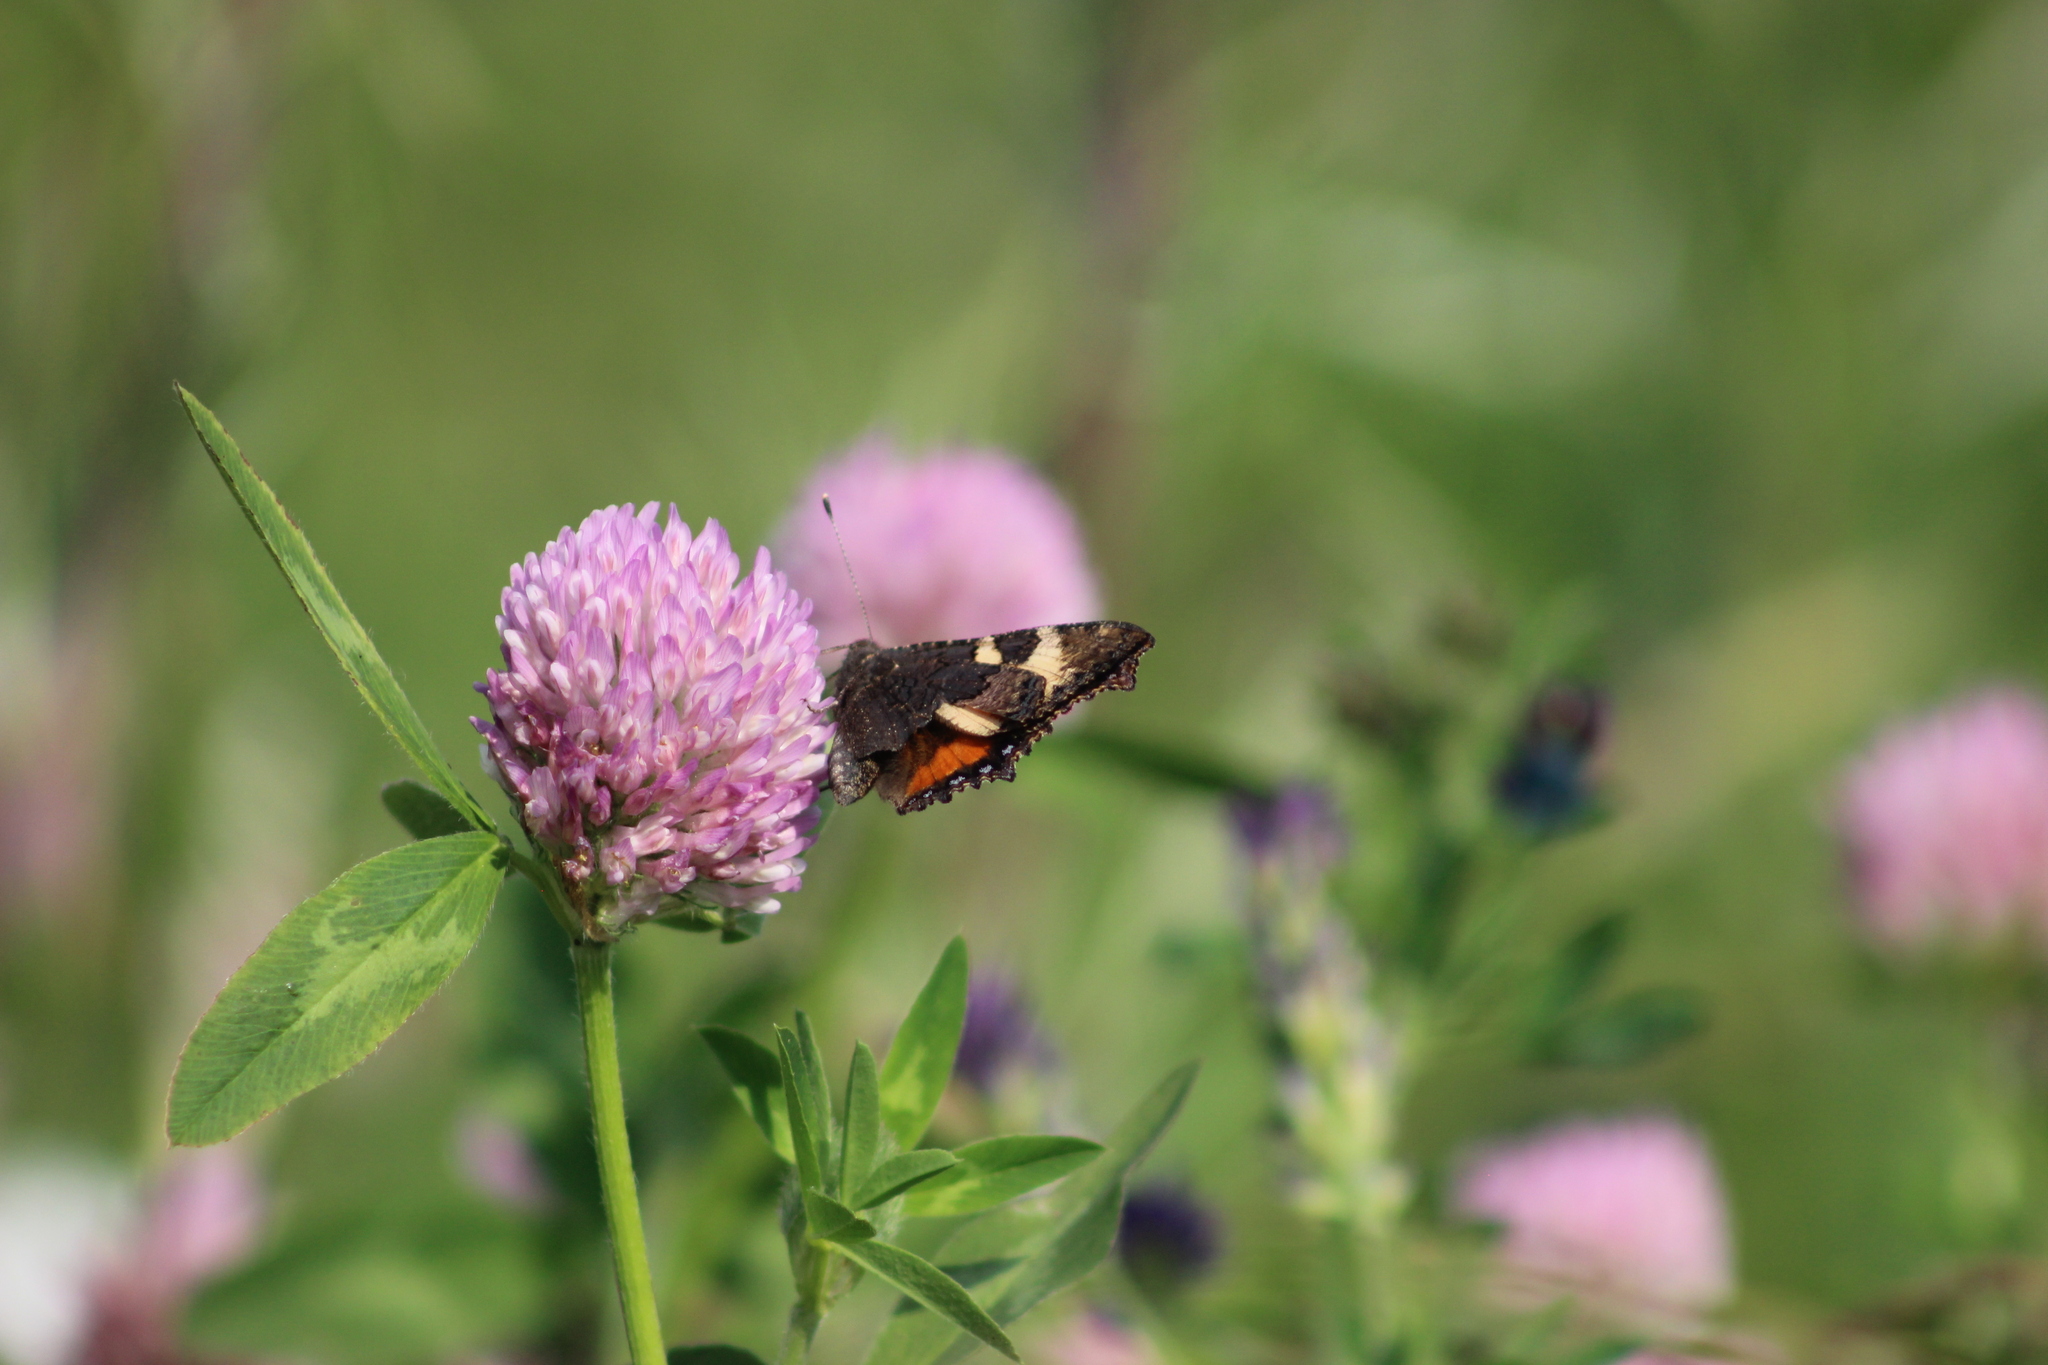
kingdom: Animalia
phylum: Arthropoda
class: Insecta
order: Lepidoptera
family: Nymphalidae
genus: Aglais
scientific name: Aglais urticae
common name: Small tortoiseshell
